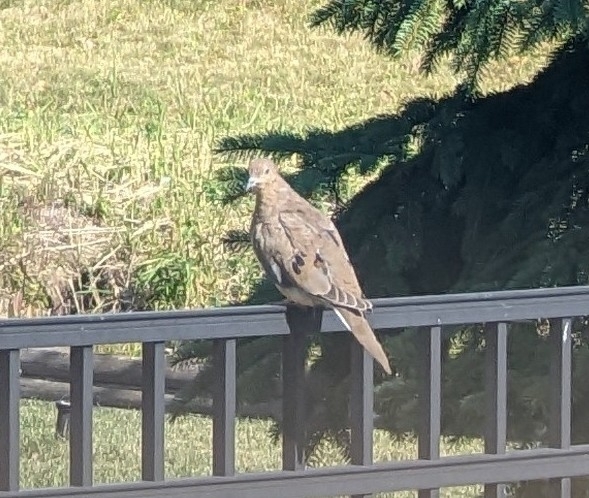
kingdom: Animalia
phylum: Chordata
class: Aves
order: Columbiformes
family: Columbidae
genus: Zenaida
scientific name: Zenaida macroura
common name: Mourning dove
